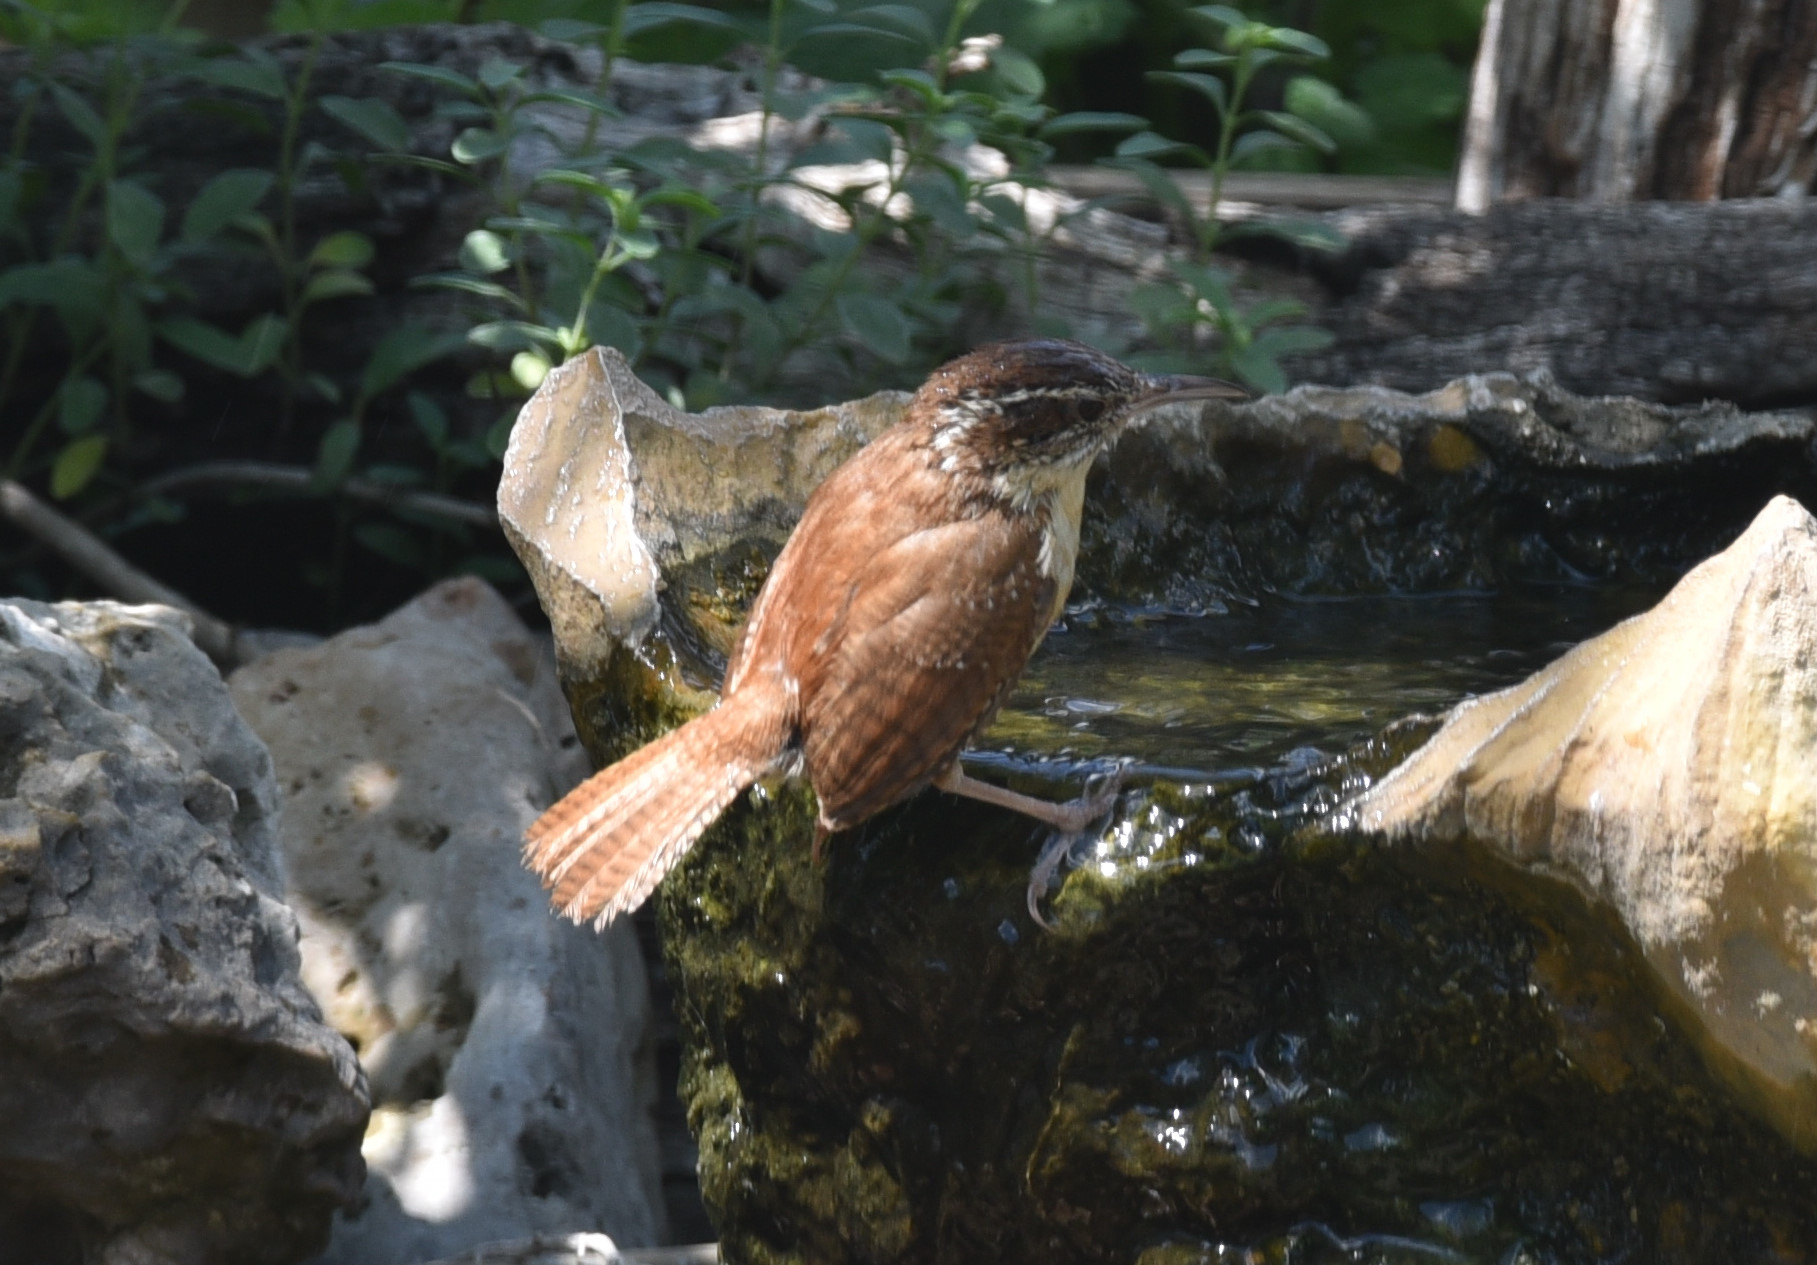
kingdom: Animalia
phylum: Chordata
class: Aves
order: Passeriformes
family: Troglodytidae
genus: Thryothorus
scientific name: Thryothorus ludovicianus
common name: Carolina wren
